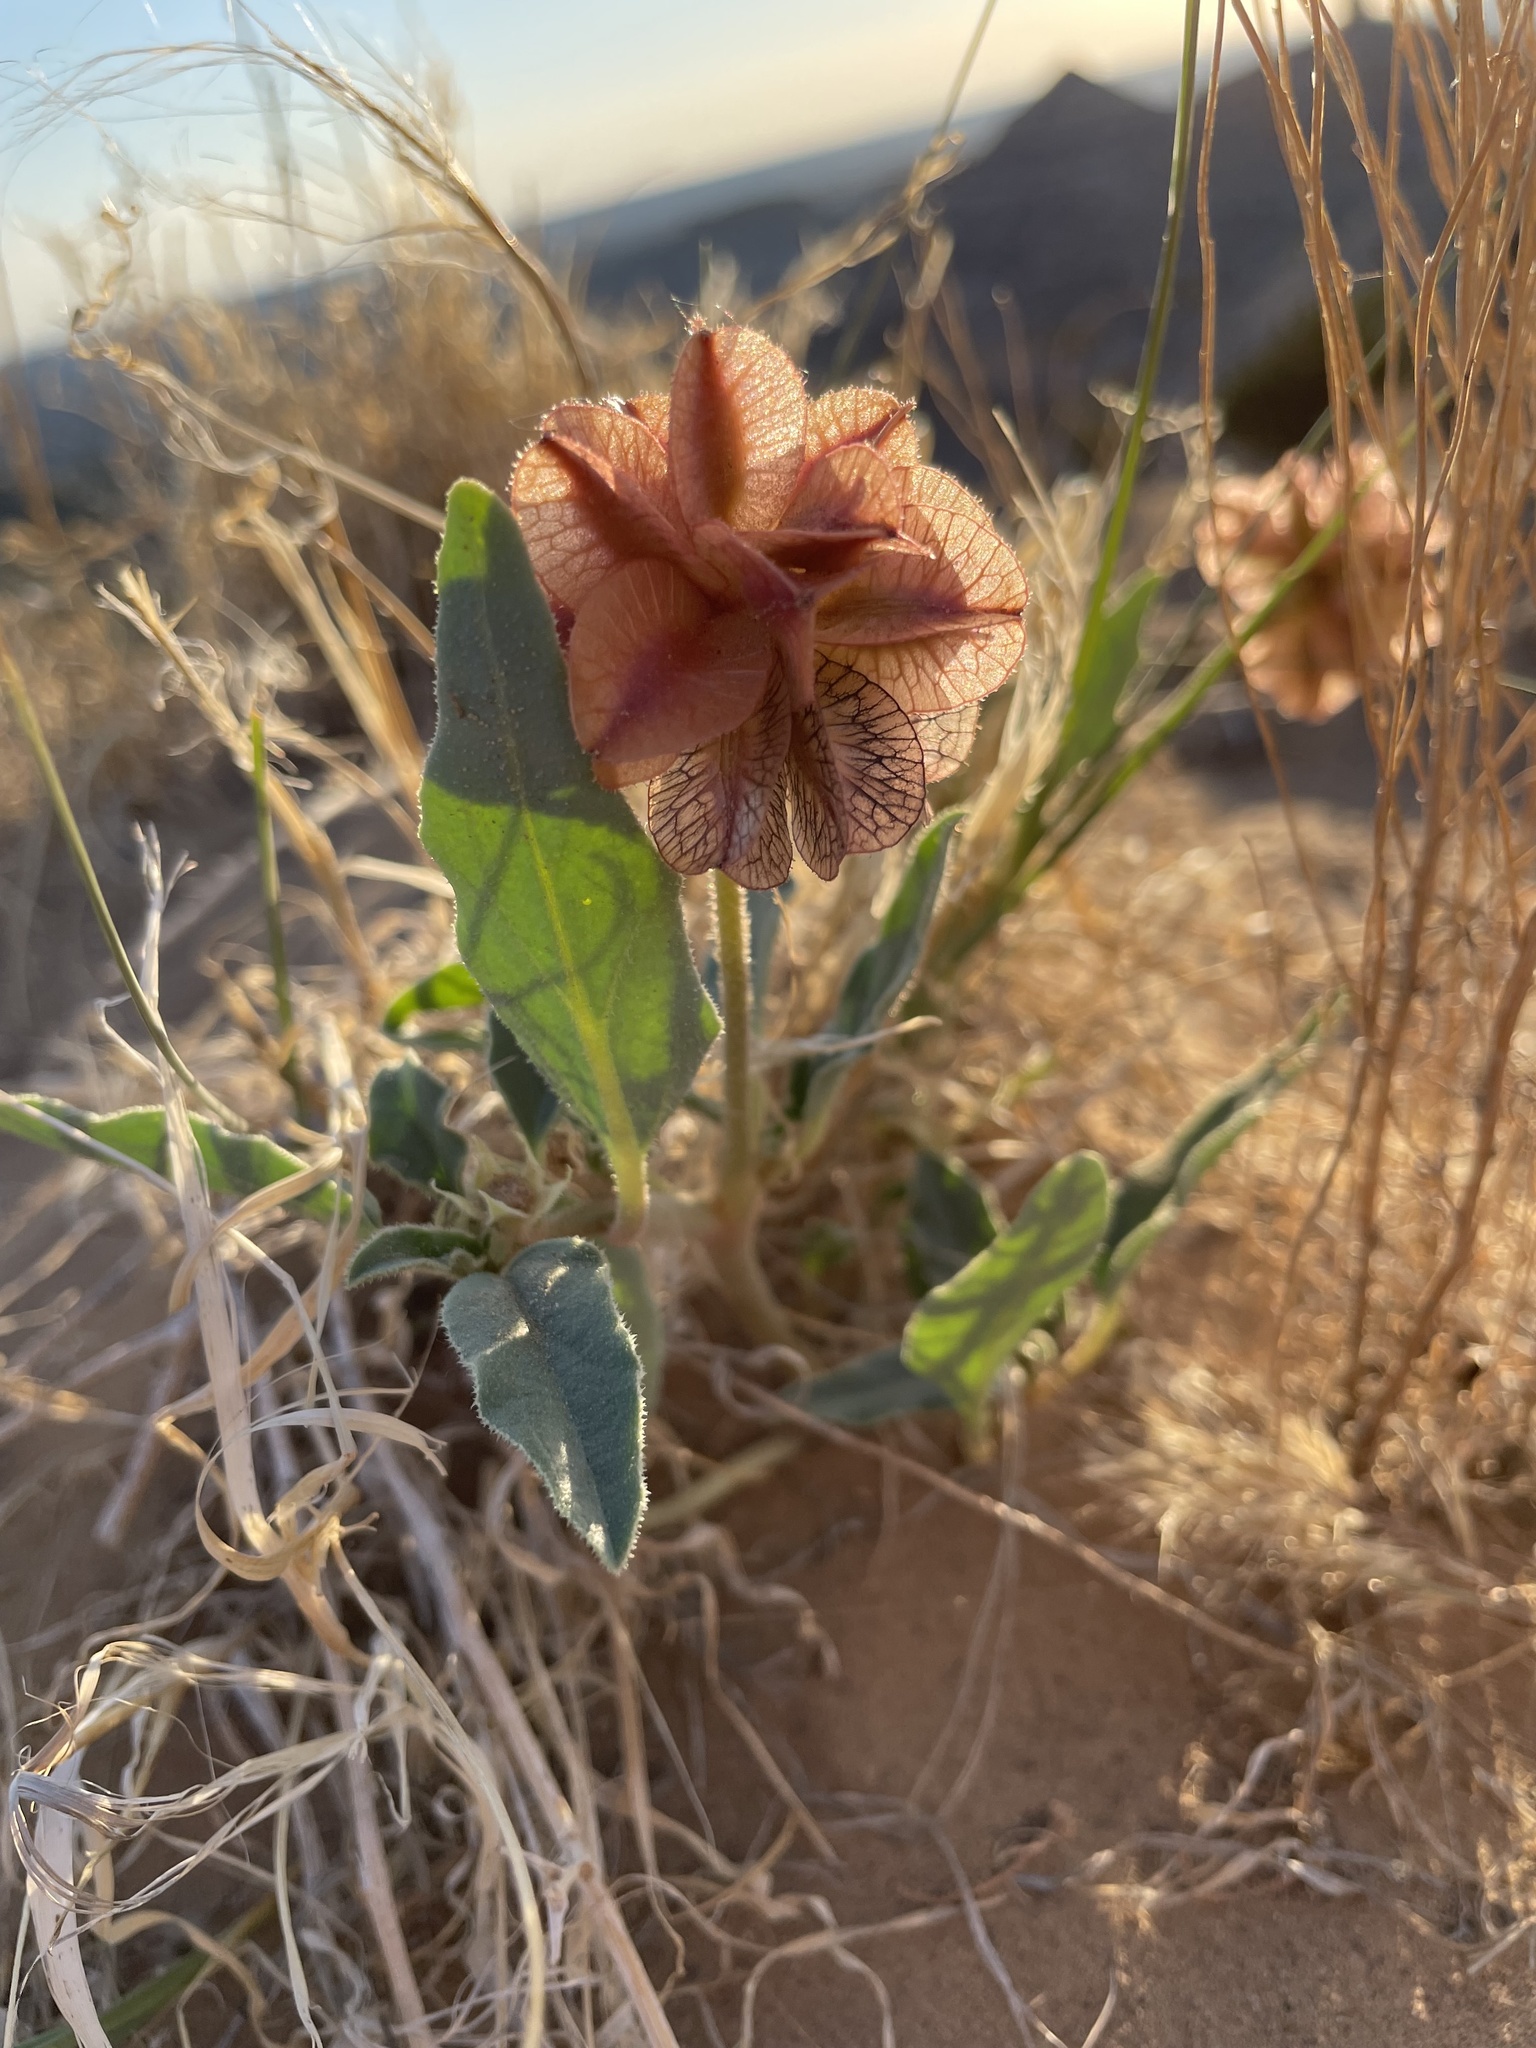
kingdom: Plantae
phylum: Tracheophyta
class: Magnoliopsida
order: Caryophyllales
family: Nyctaginaceae
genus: Tripterocalyx
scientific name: Tripterocalyx carneus
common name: Winged sandpuffs
